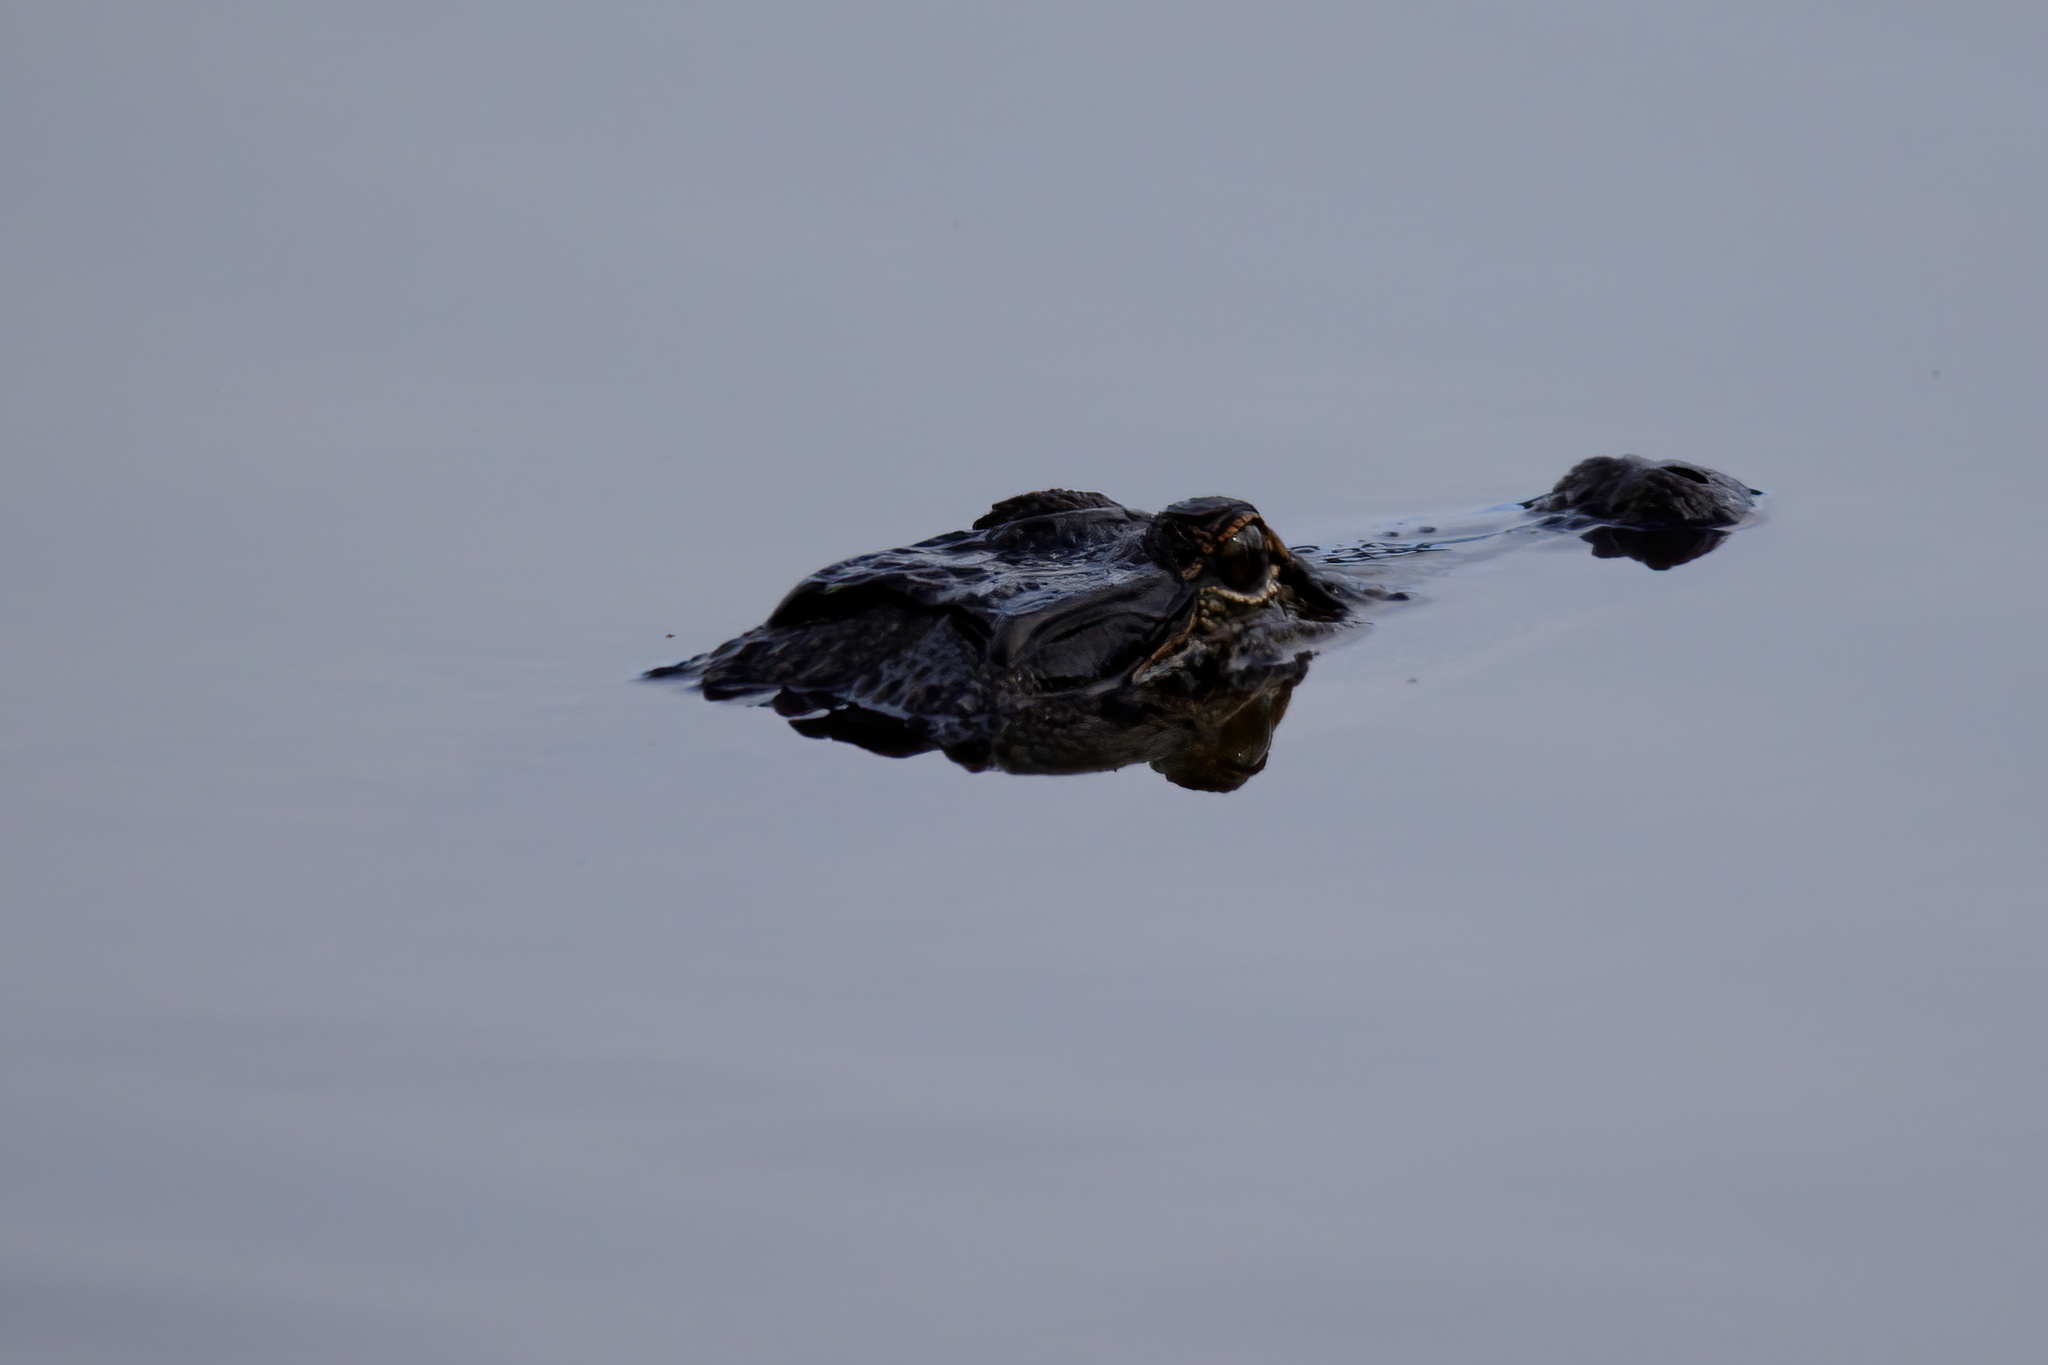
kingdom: Animalia
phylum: Chordata
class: Crocodylia
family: Alligatoridae
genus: Alligator
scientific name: Alligator mississippiensis
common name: American alligator
